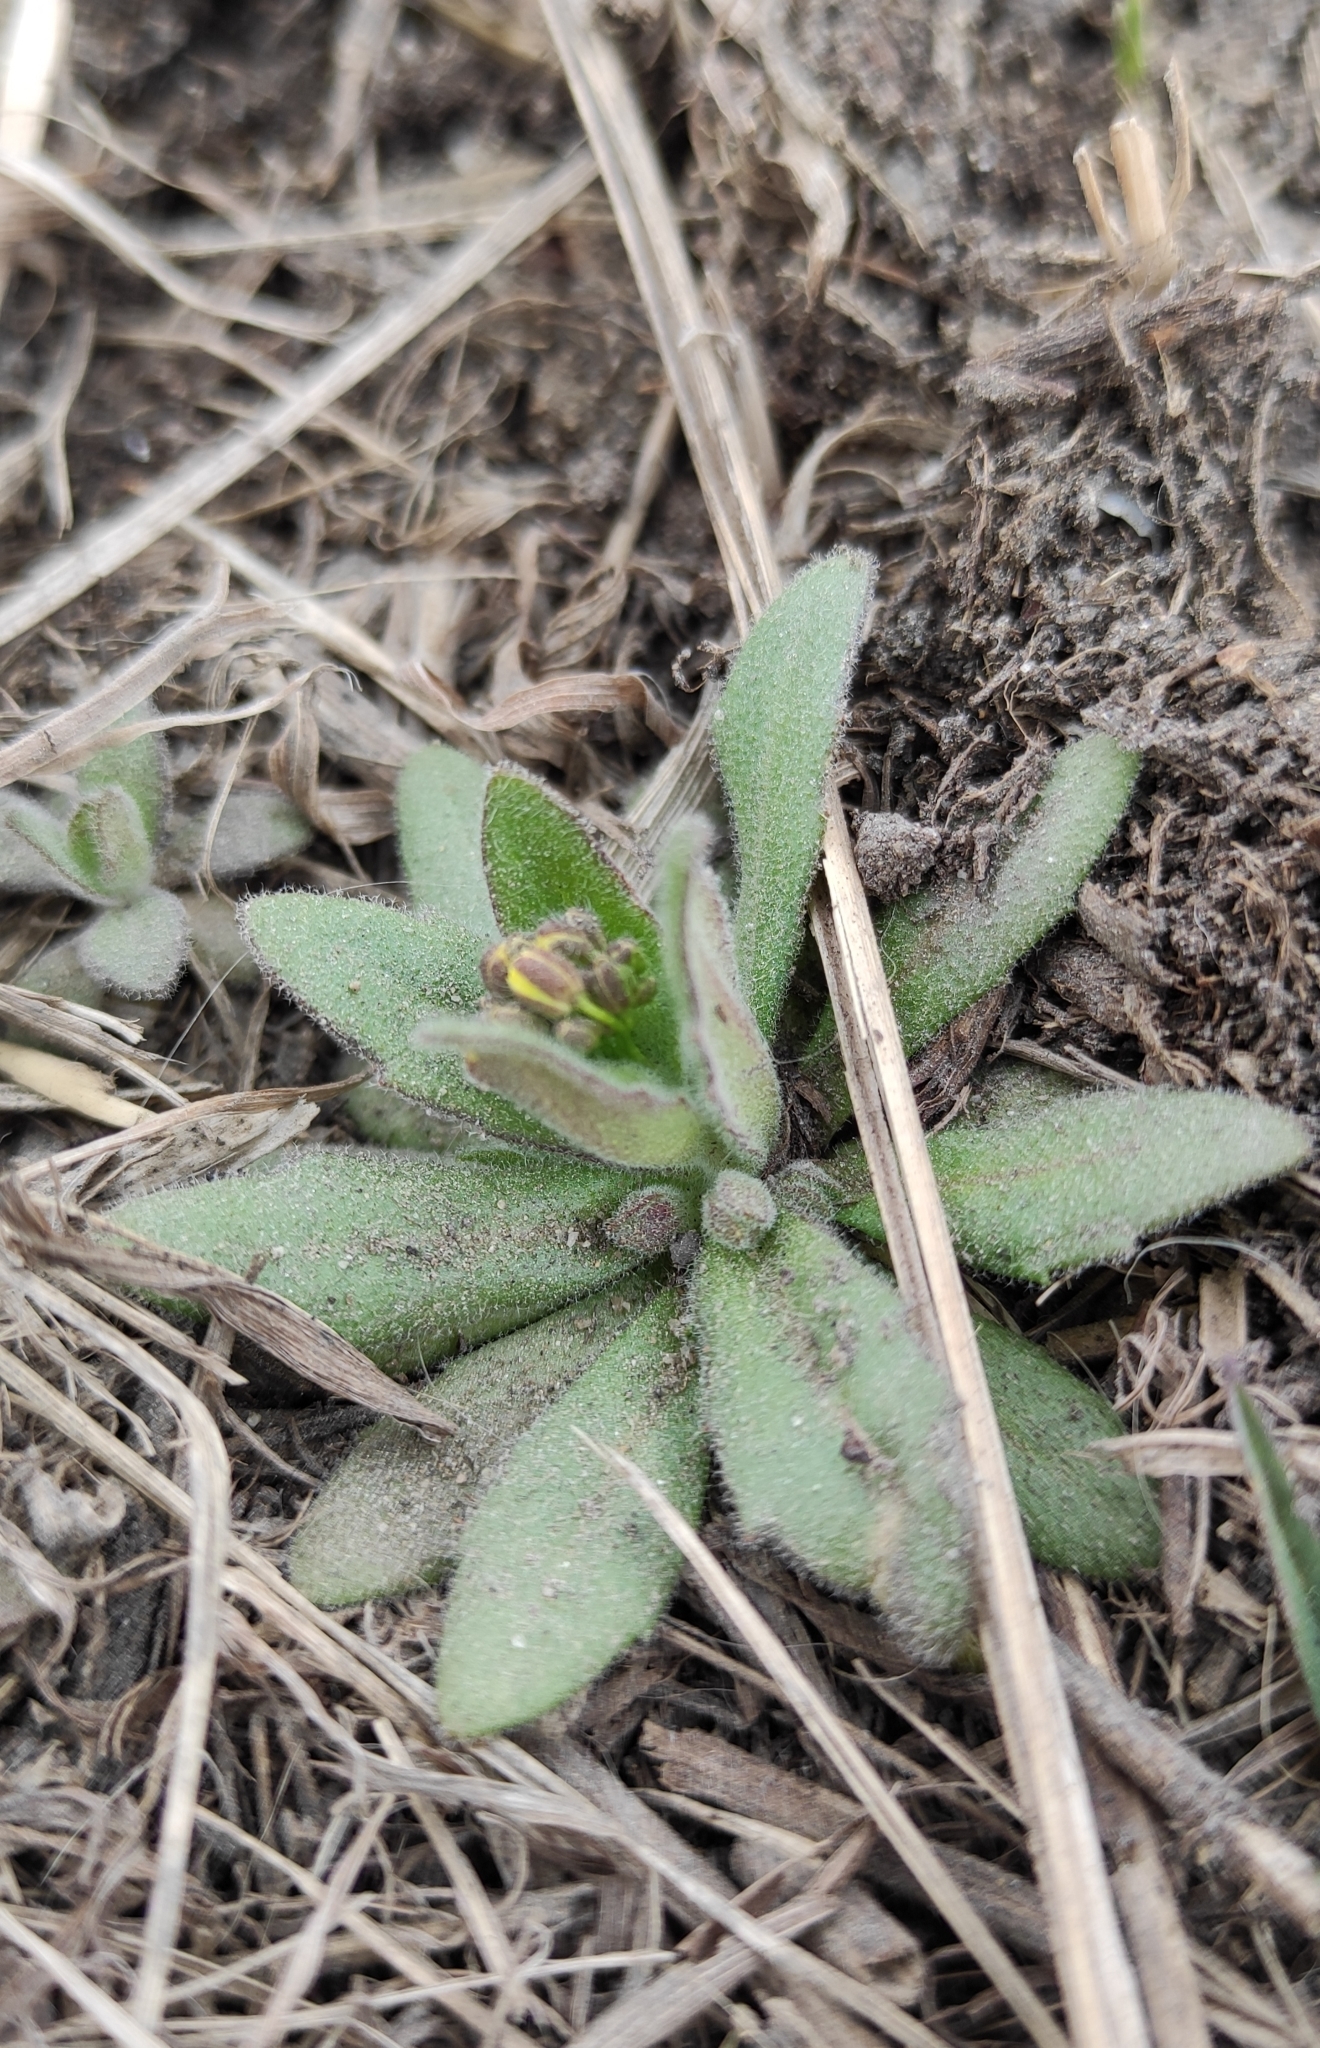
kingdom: Plantae
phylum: Tracheophyta
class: Magnoliopsida
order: Brassicales
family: Brassicaceae
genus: Draba
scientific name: Draba nemorosa
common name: Wood whitlow-grass
